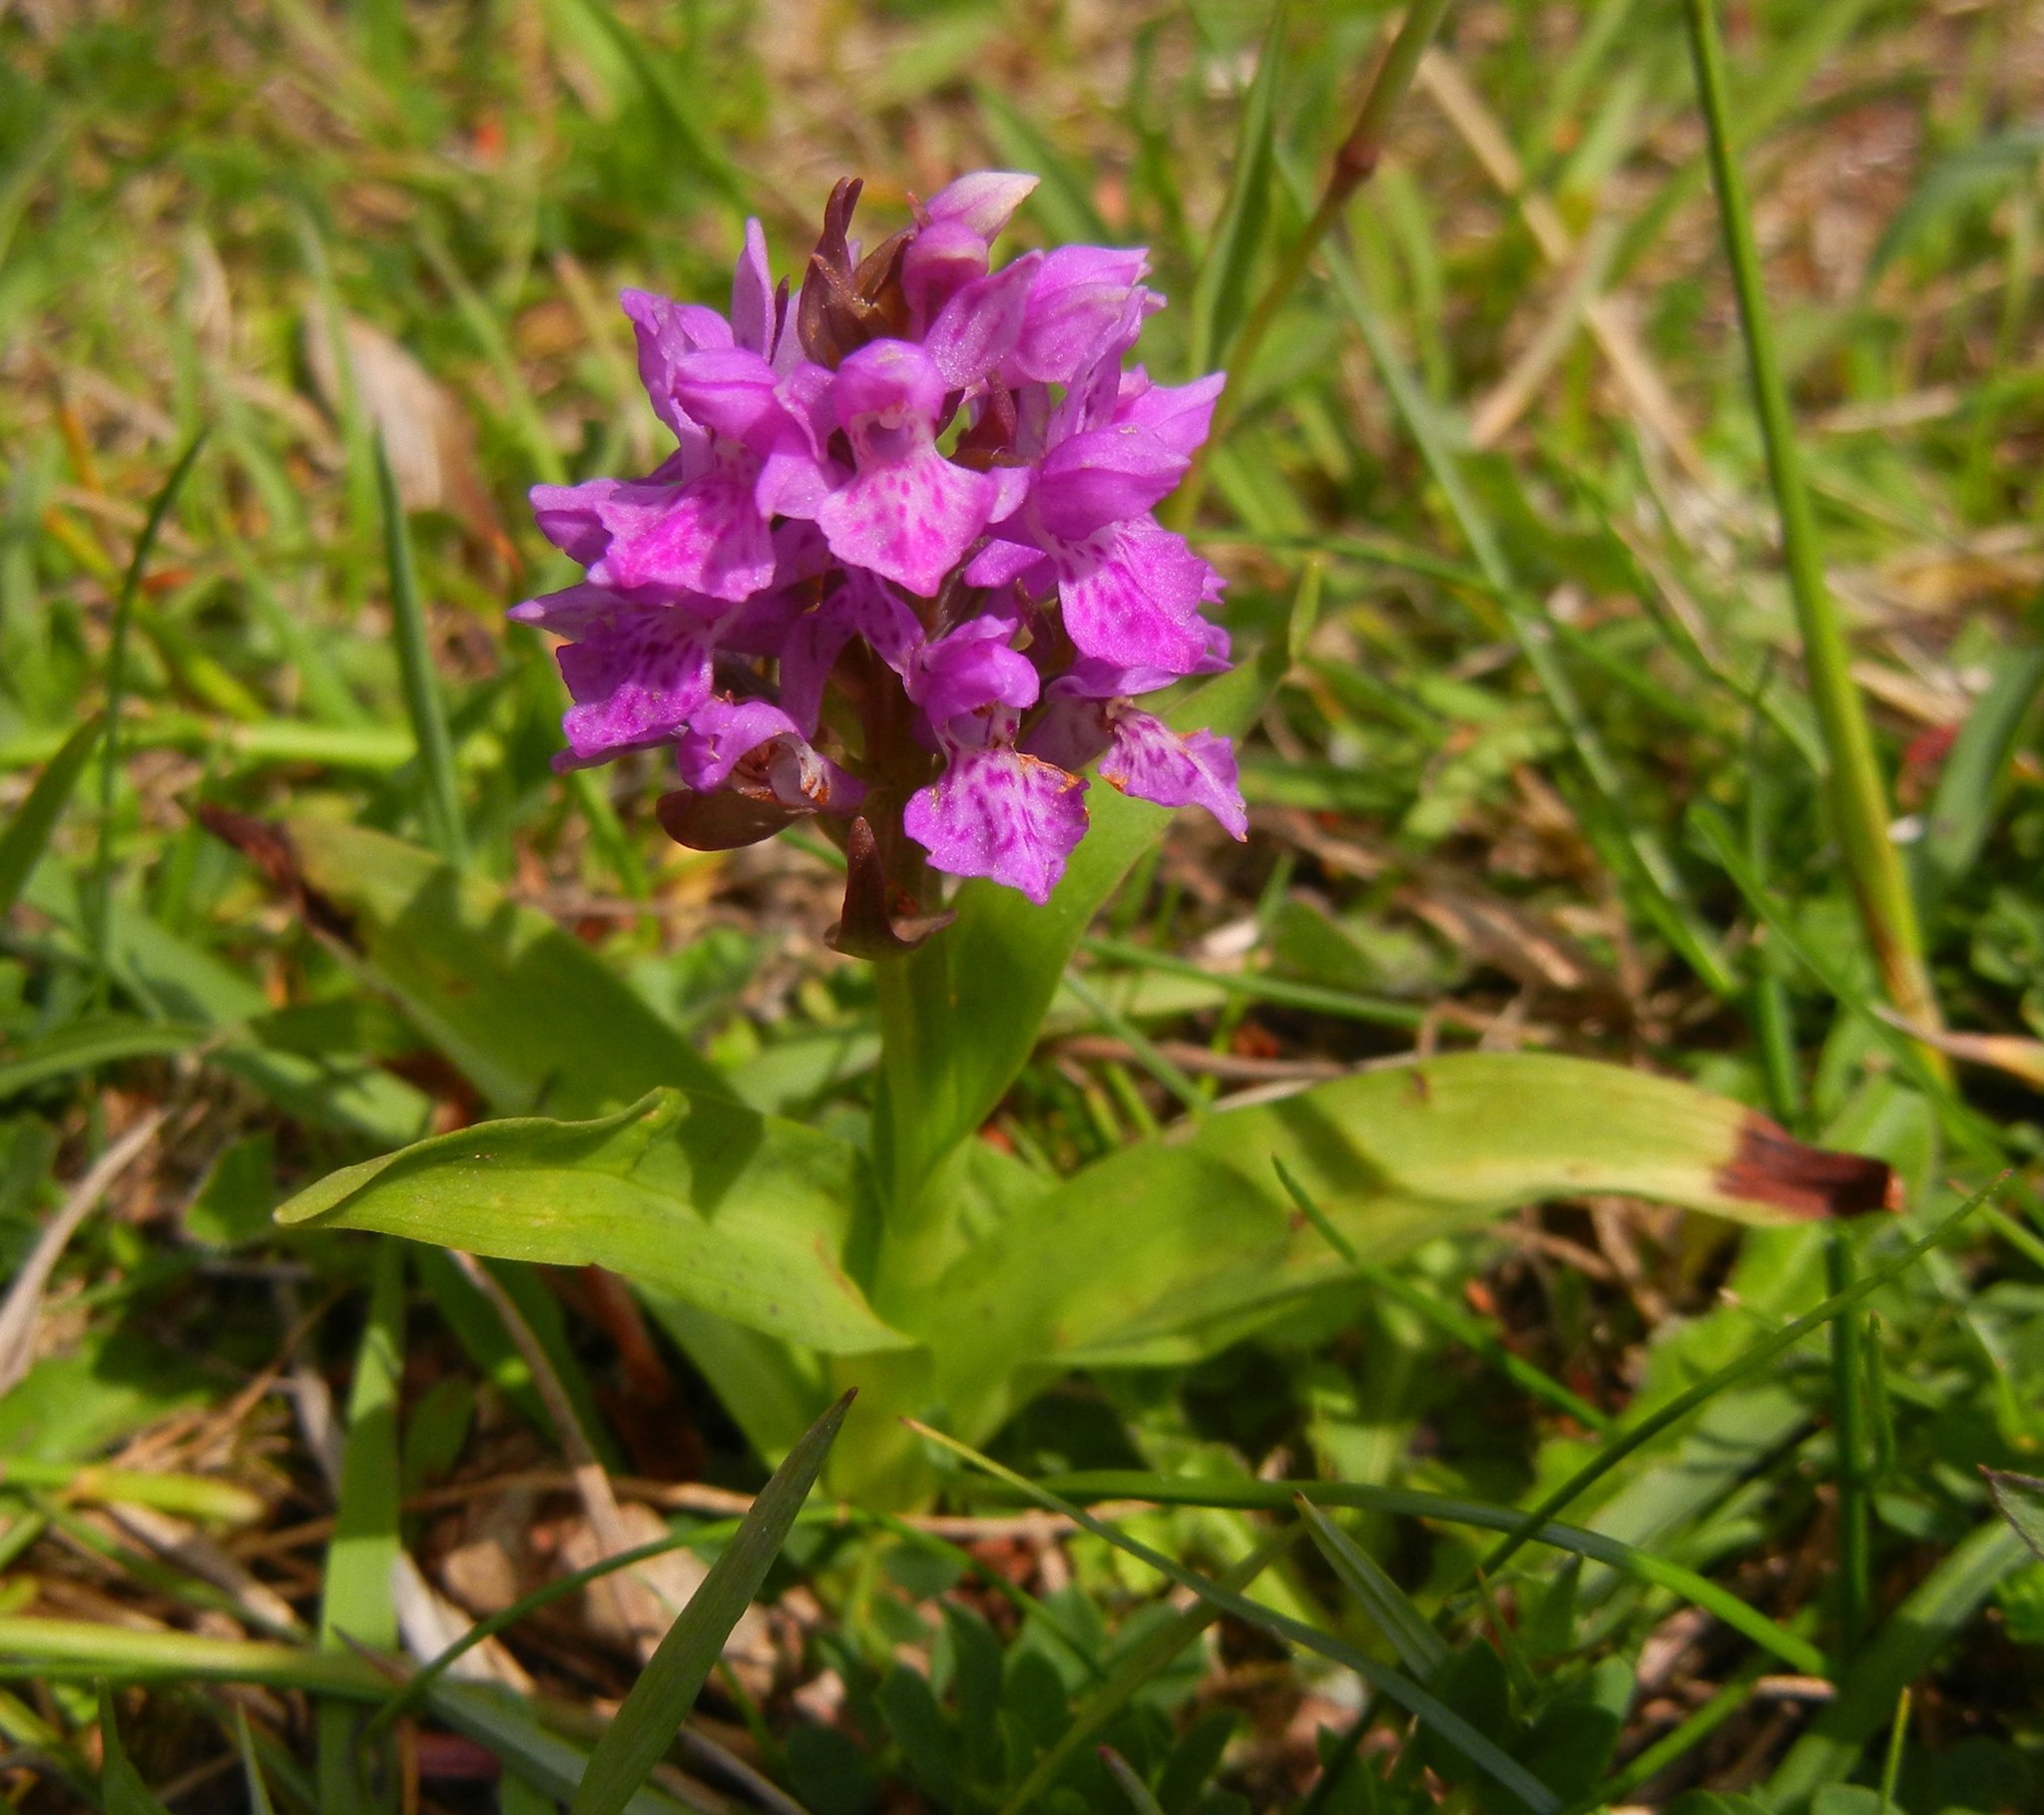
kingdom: Plantae
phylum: Tracheophyta
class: Liliopsida
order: Asparagales
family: Orchidaceae
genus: Dactylorhiza
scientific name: Dactylorhiza majalis
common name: Marsh orchid
